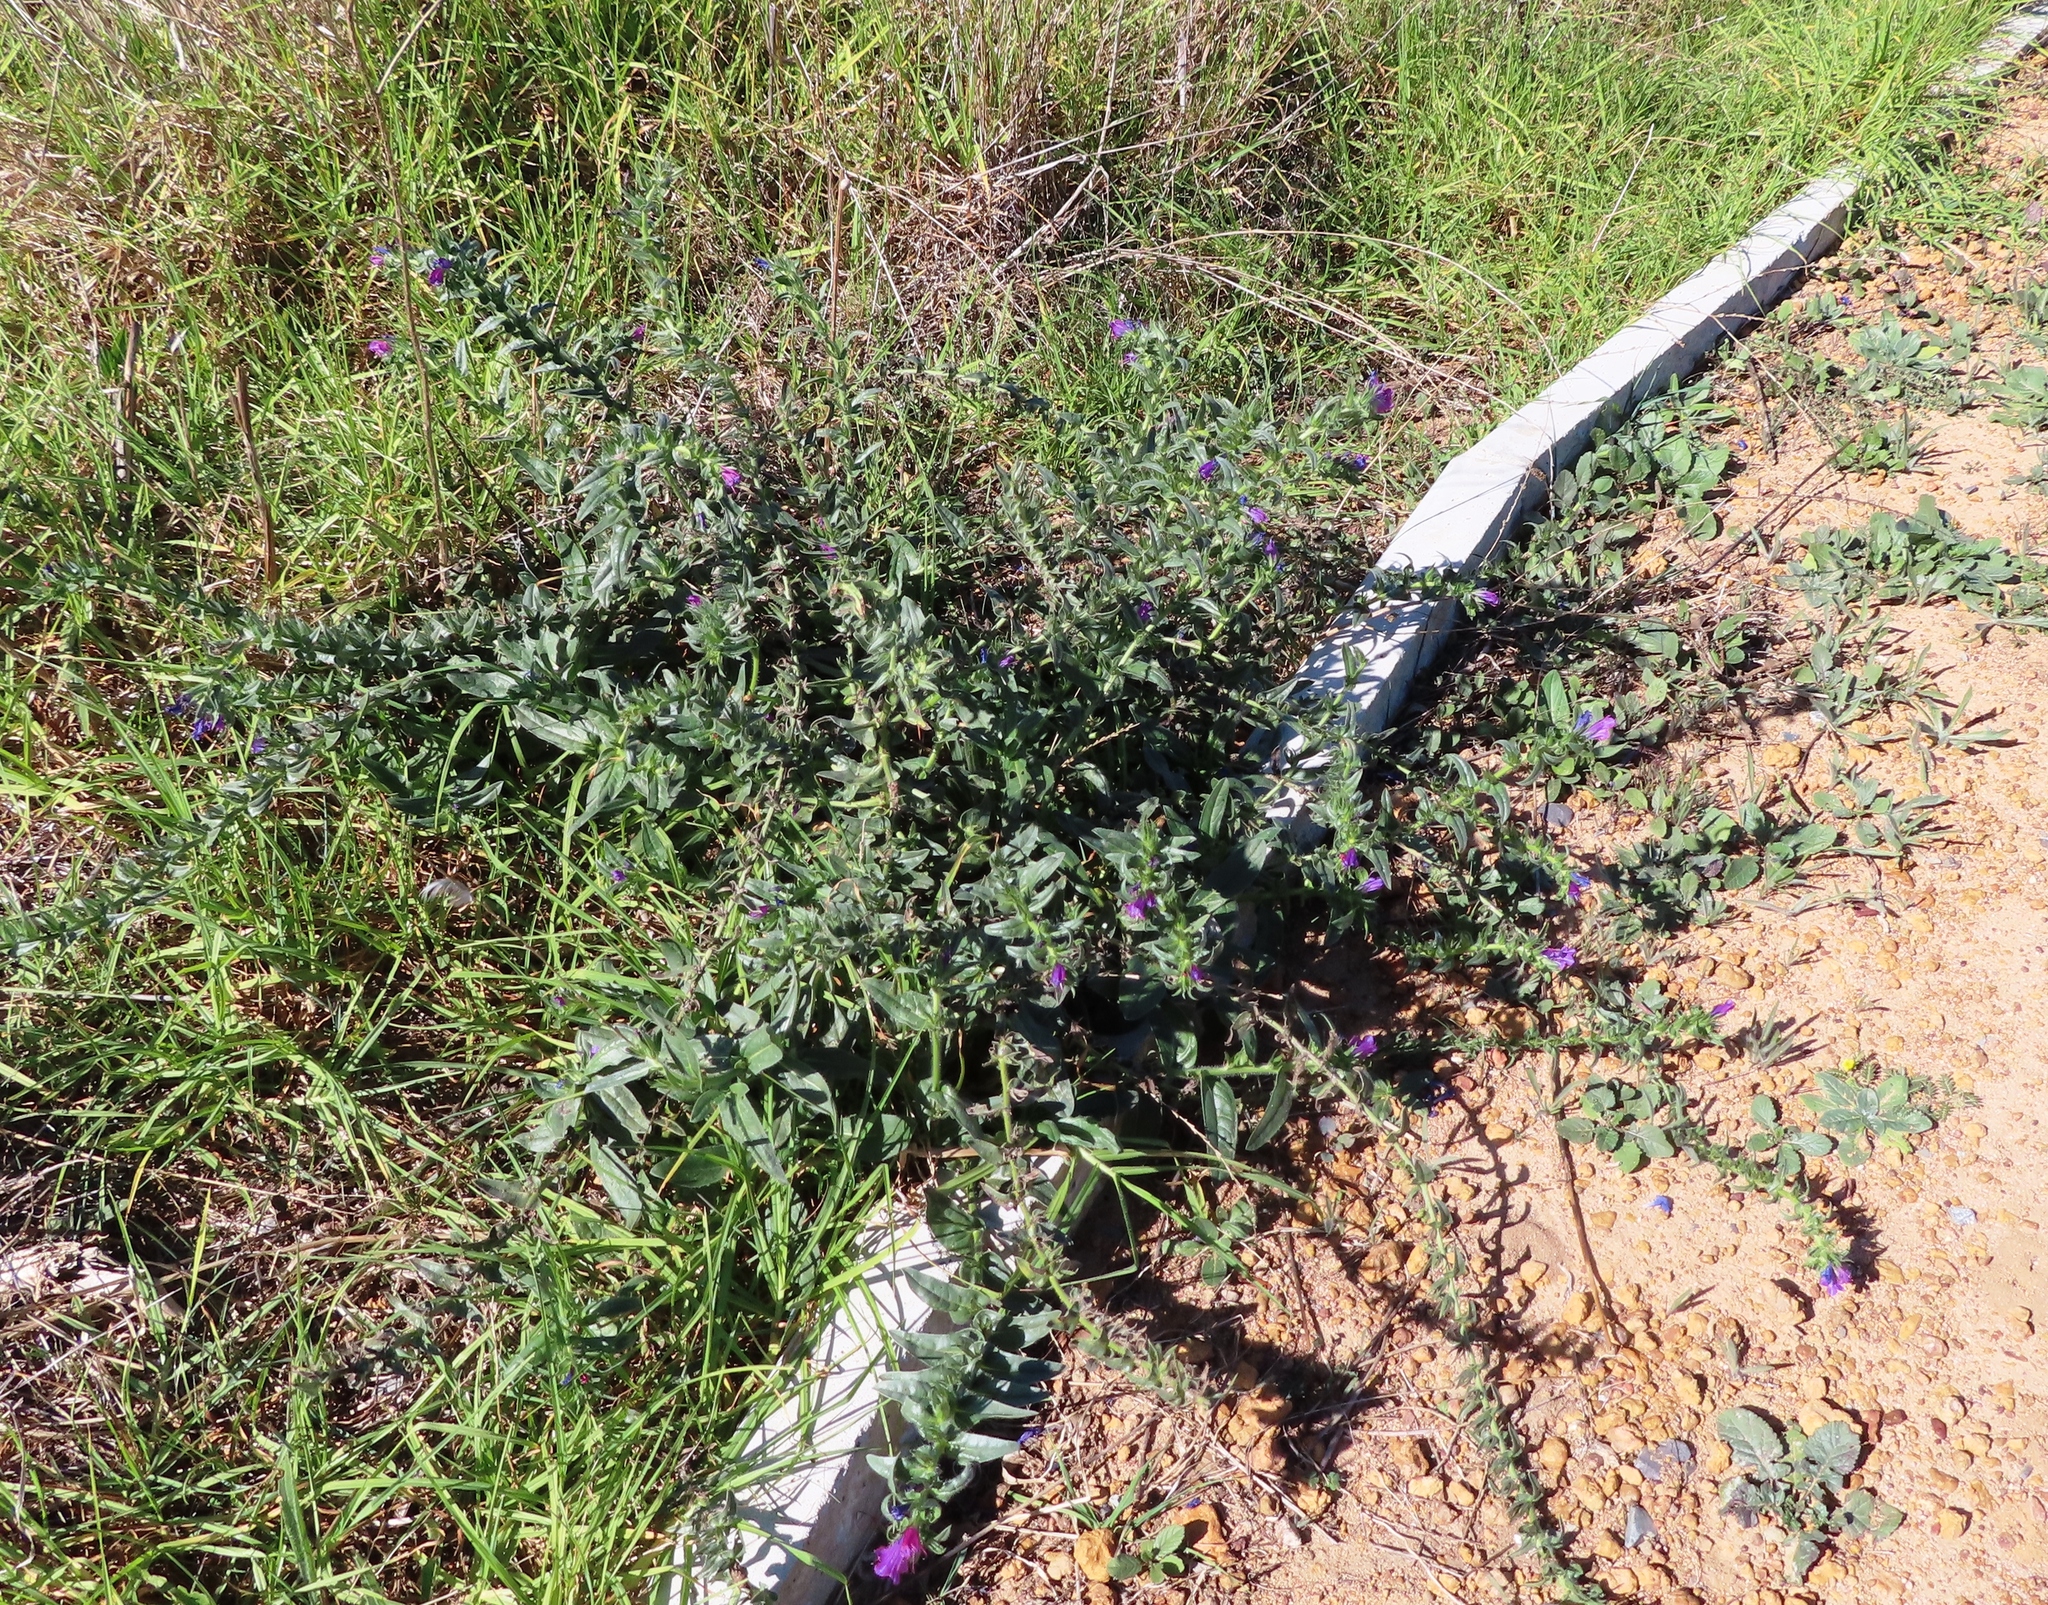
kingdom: Plantae
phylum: Tracheophyta
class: Magnoliopsida
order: Boraginales
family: Boraginaceae
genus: Echium
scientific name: Echium plantagineum
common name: Purple viper's-bugloss
